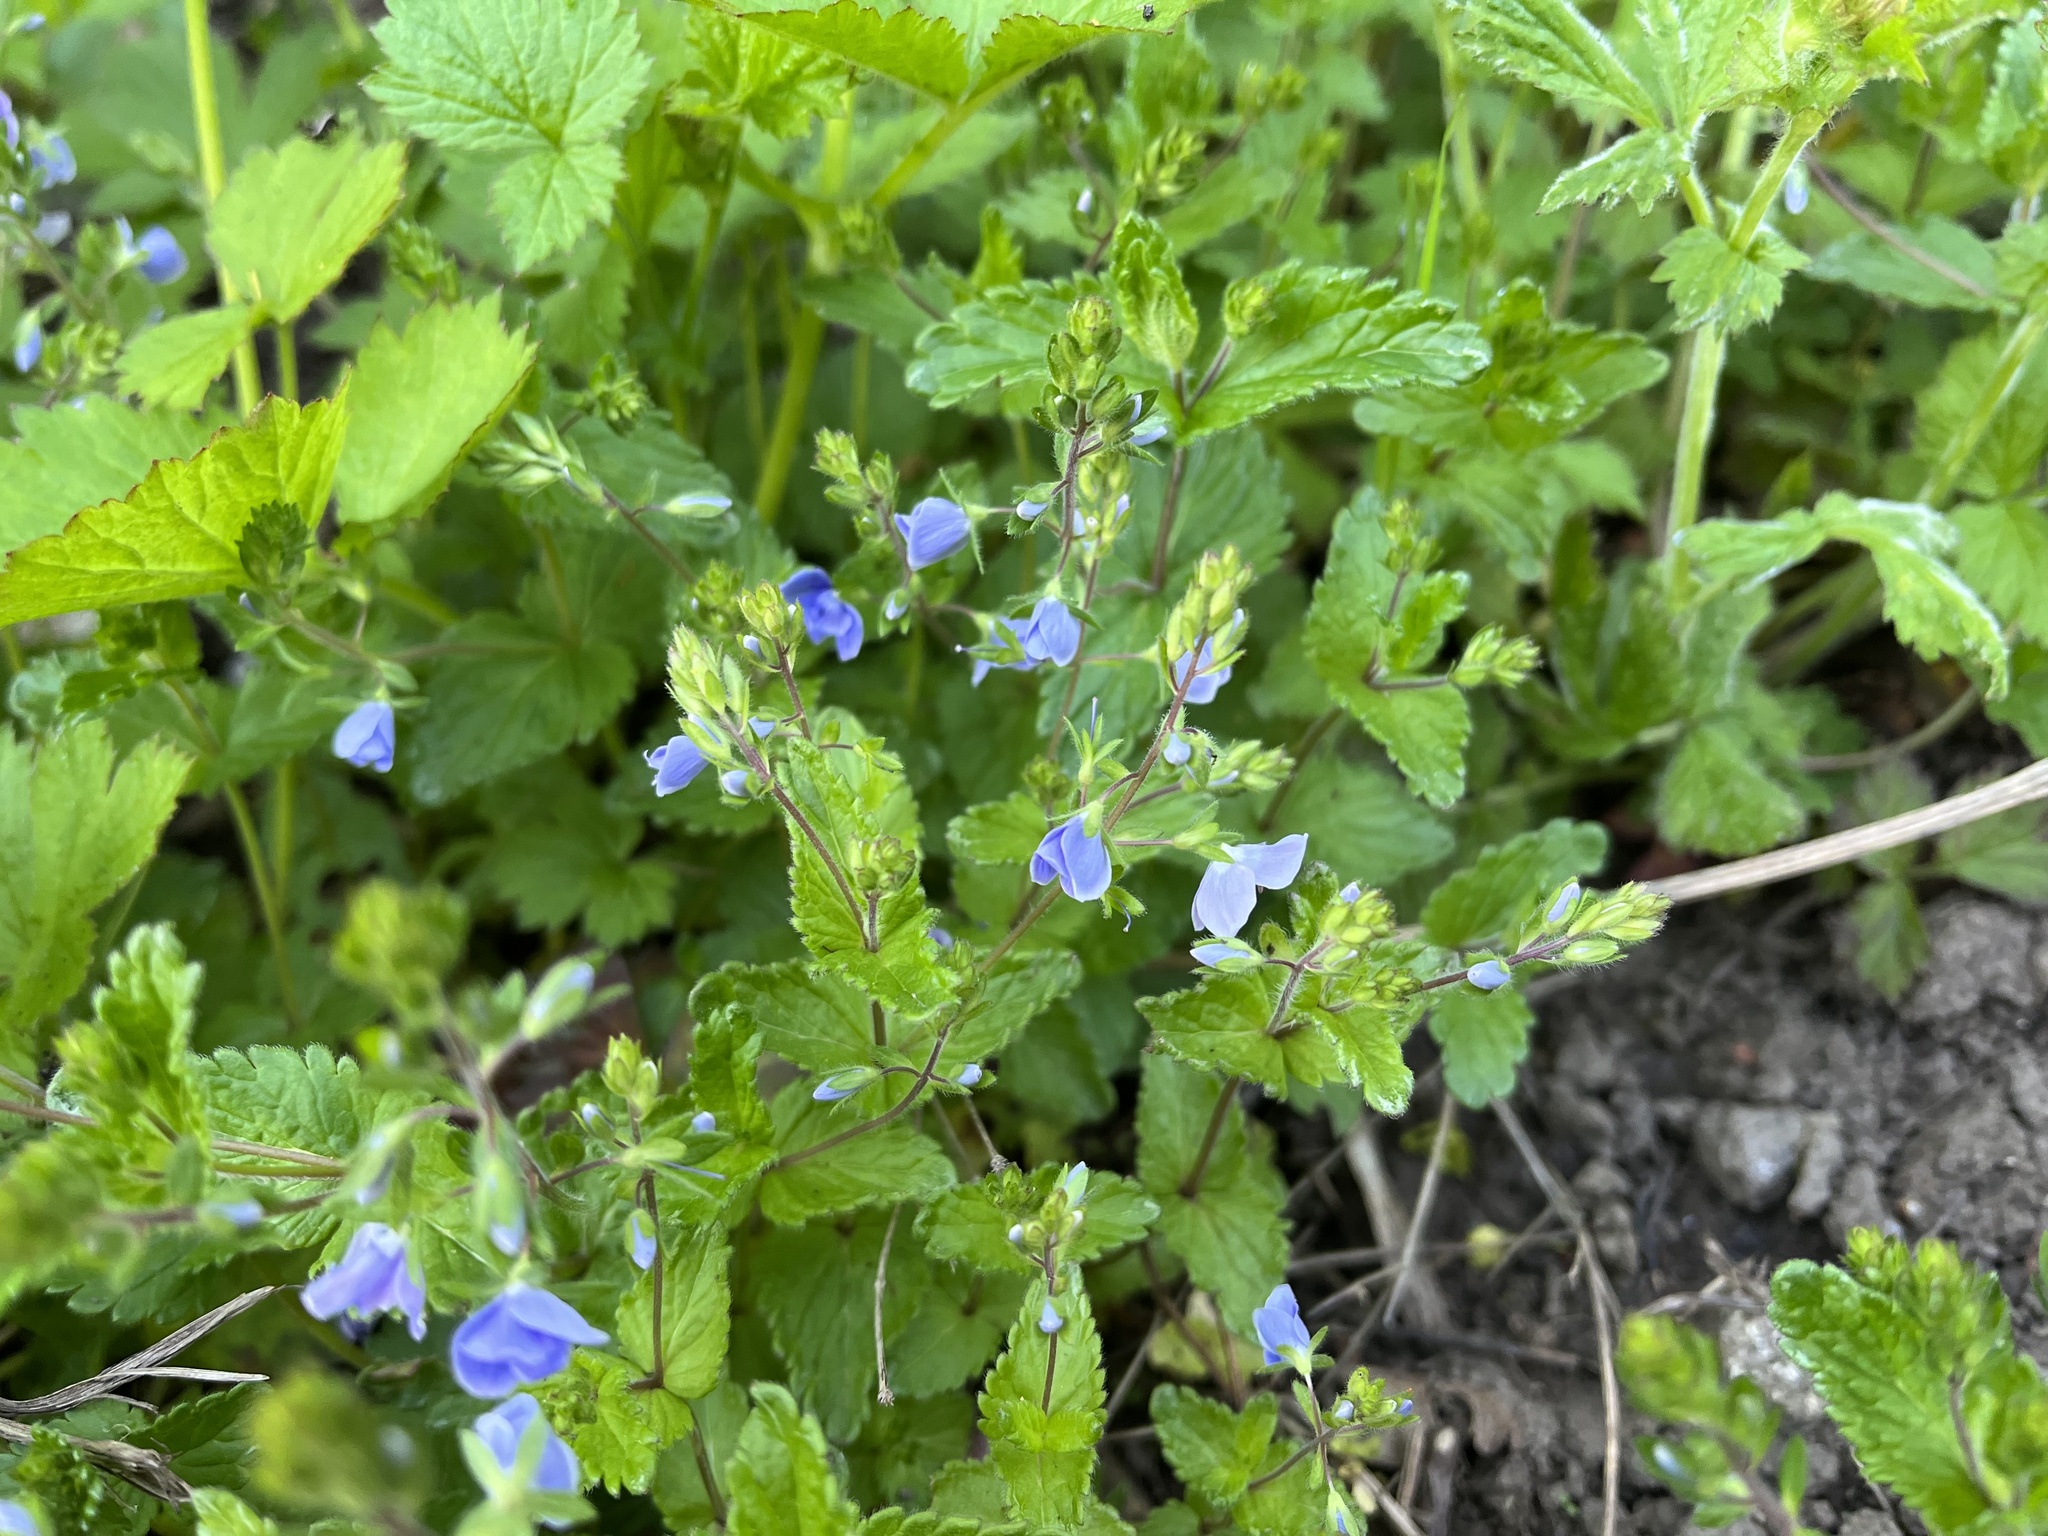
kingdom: Plantae
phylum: Tracheophyta
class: Magnoliopsida
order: Lamiales
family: Plantaginaceae
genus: Veronica
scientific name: Veronica chamaedrys
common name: Germander speedwell
